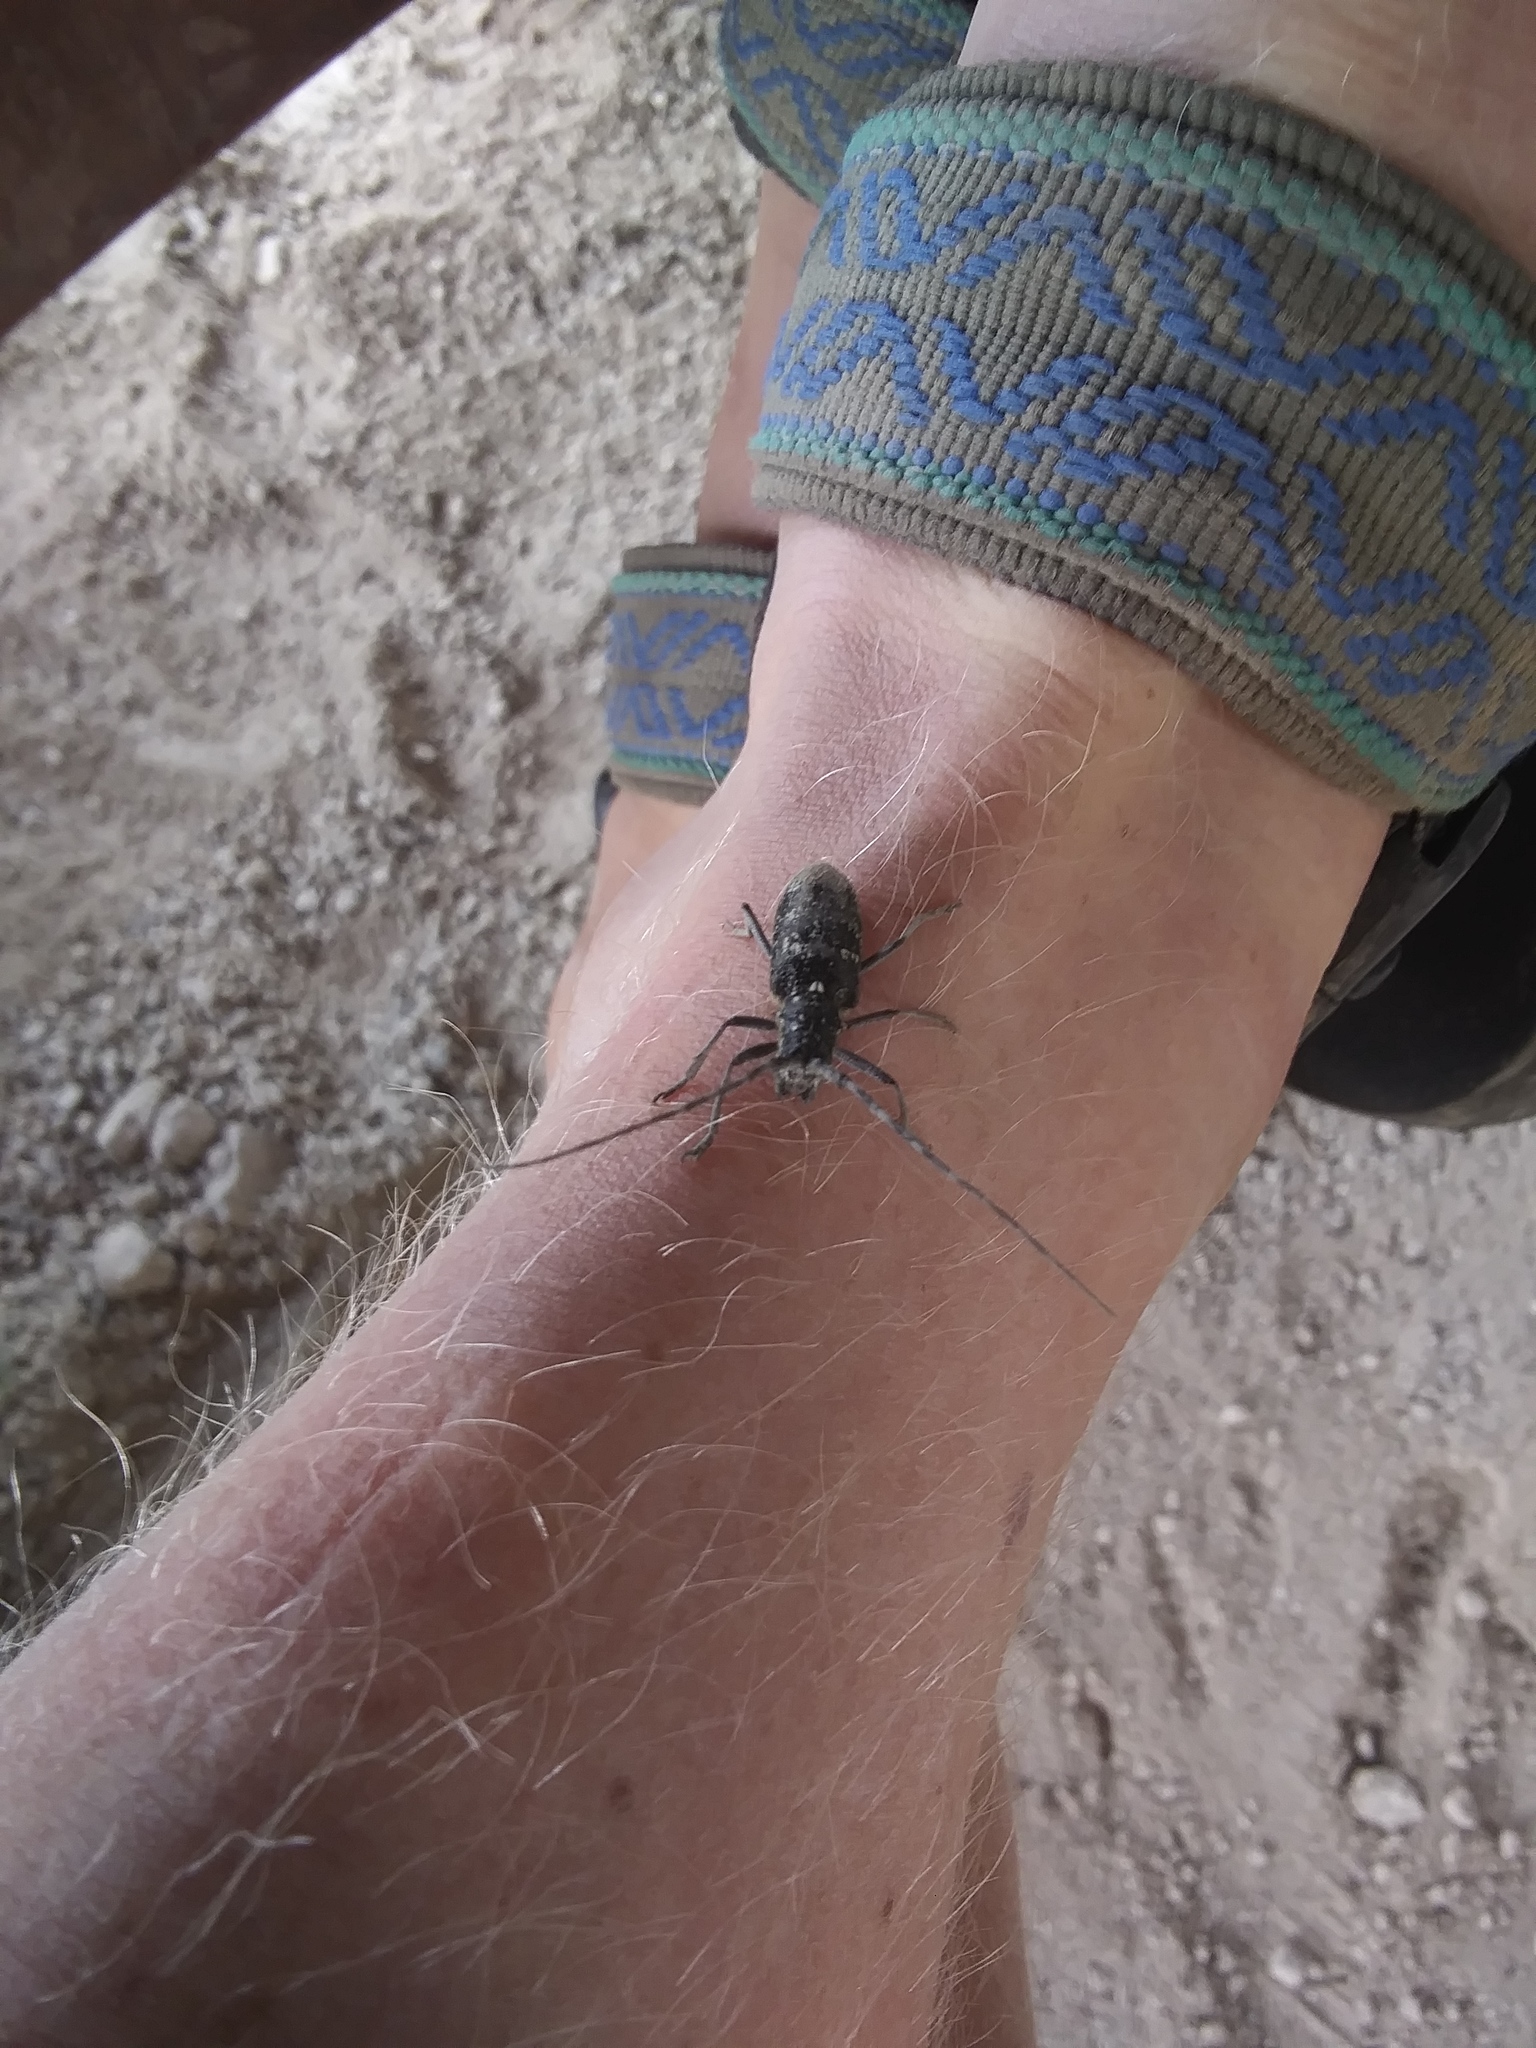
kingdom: Animalia
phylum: Arthropoda
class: Insecta
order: Coleoptera
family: Cerambycidae
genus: Monochamus
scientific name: Monochamus scutellatus
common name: White-spotted sawyer beetle
